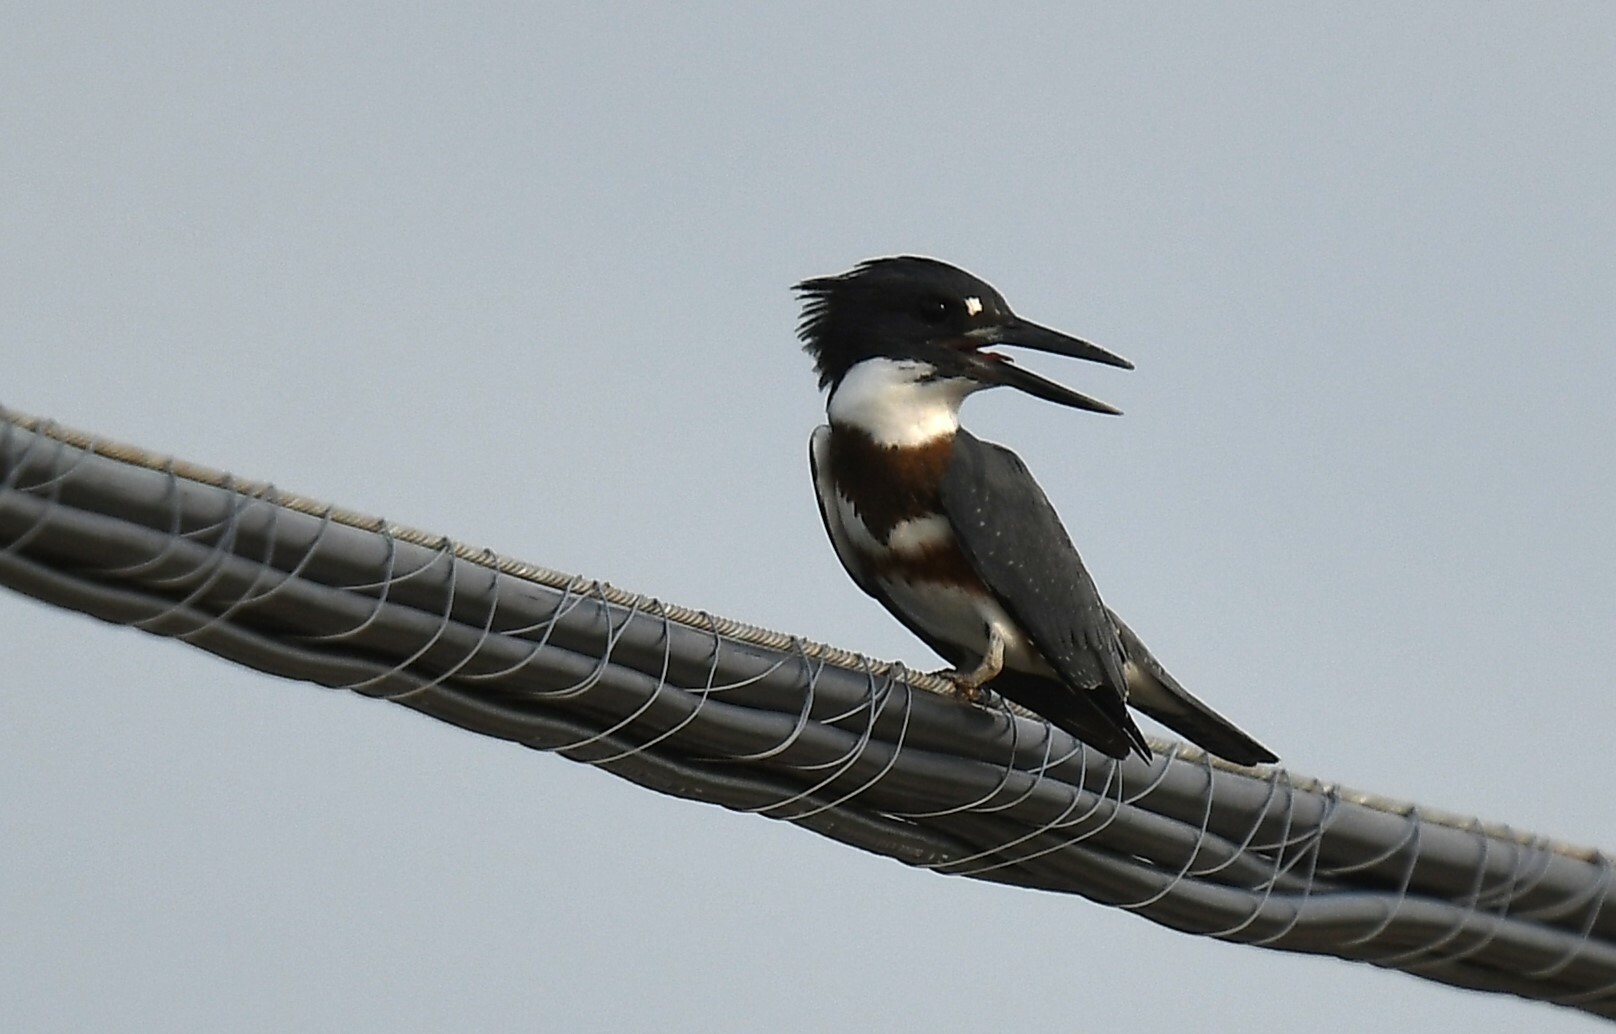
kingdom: Animalia
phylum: Chordata
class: Aves
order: Coraciiformes
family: Alcedinidae
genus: Megaceryle
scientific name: Megaceryle alcyon
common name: Belted kingfisher
